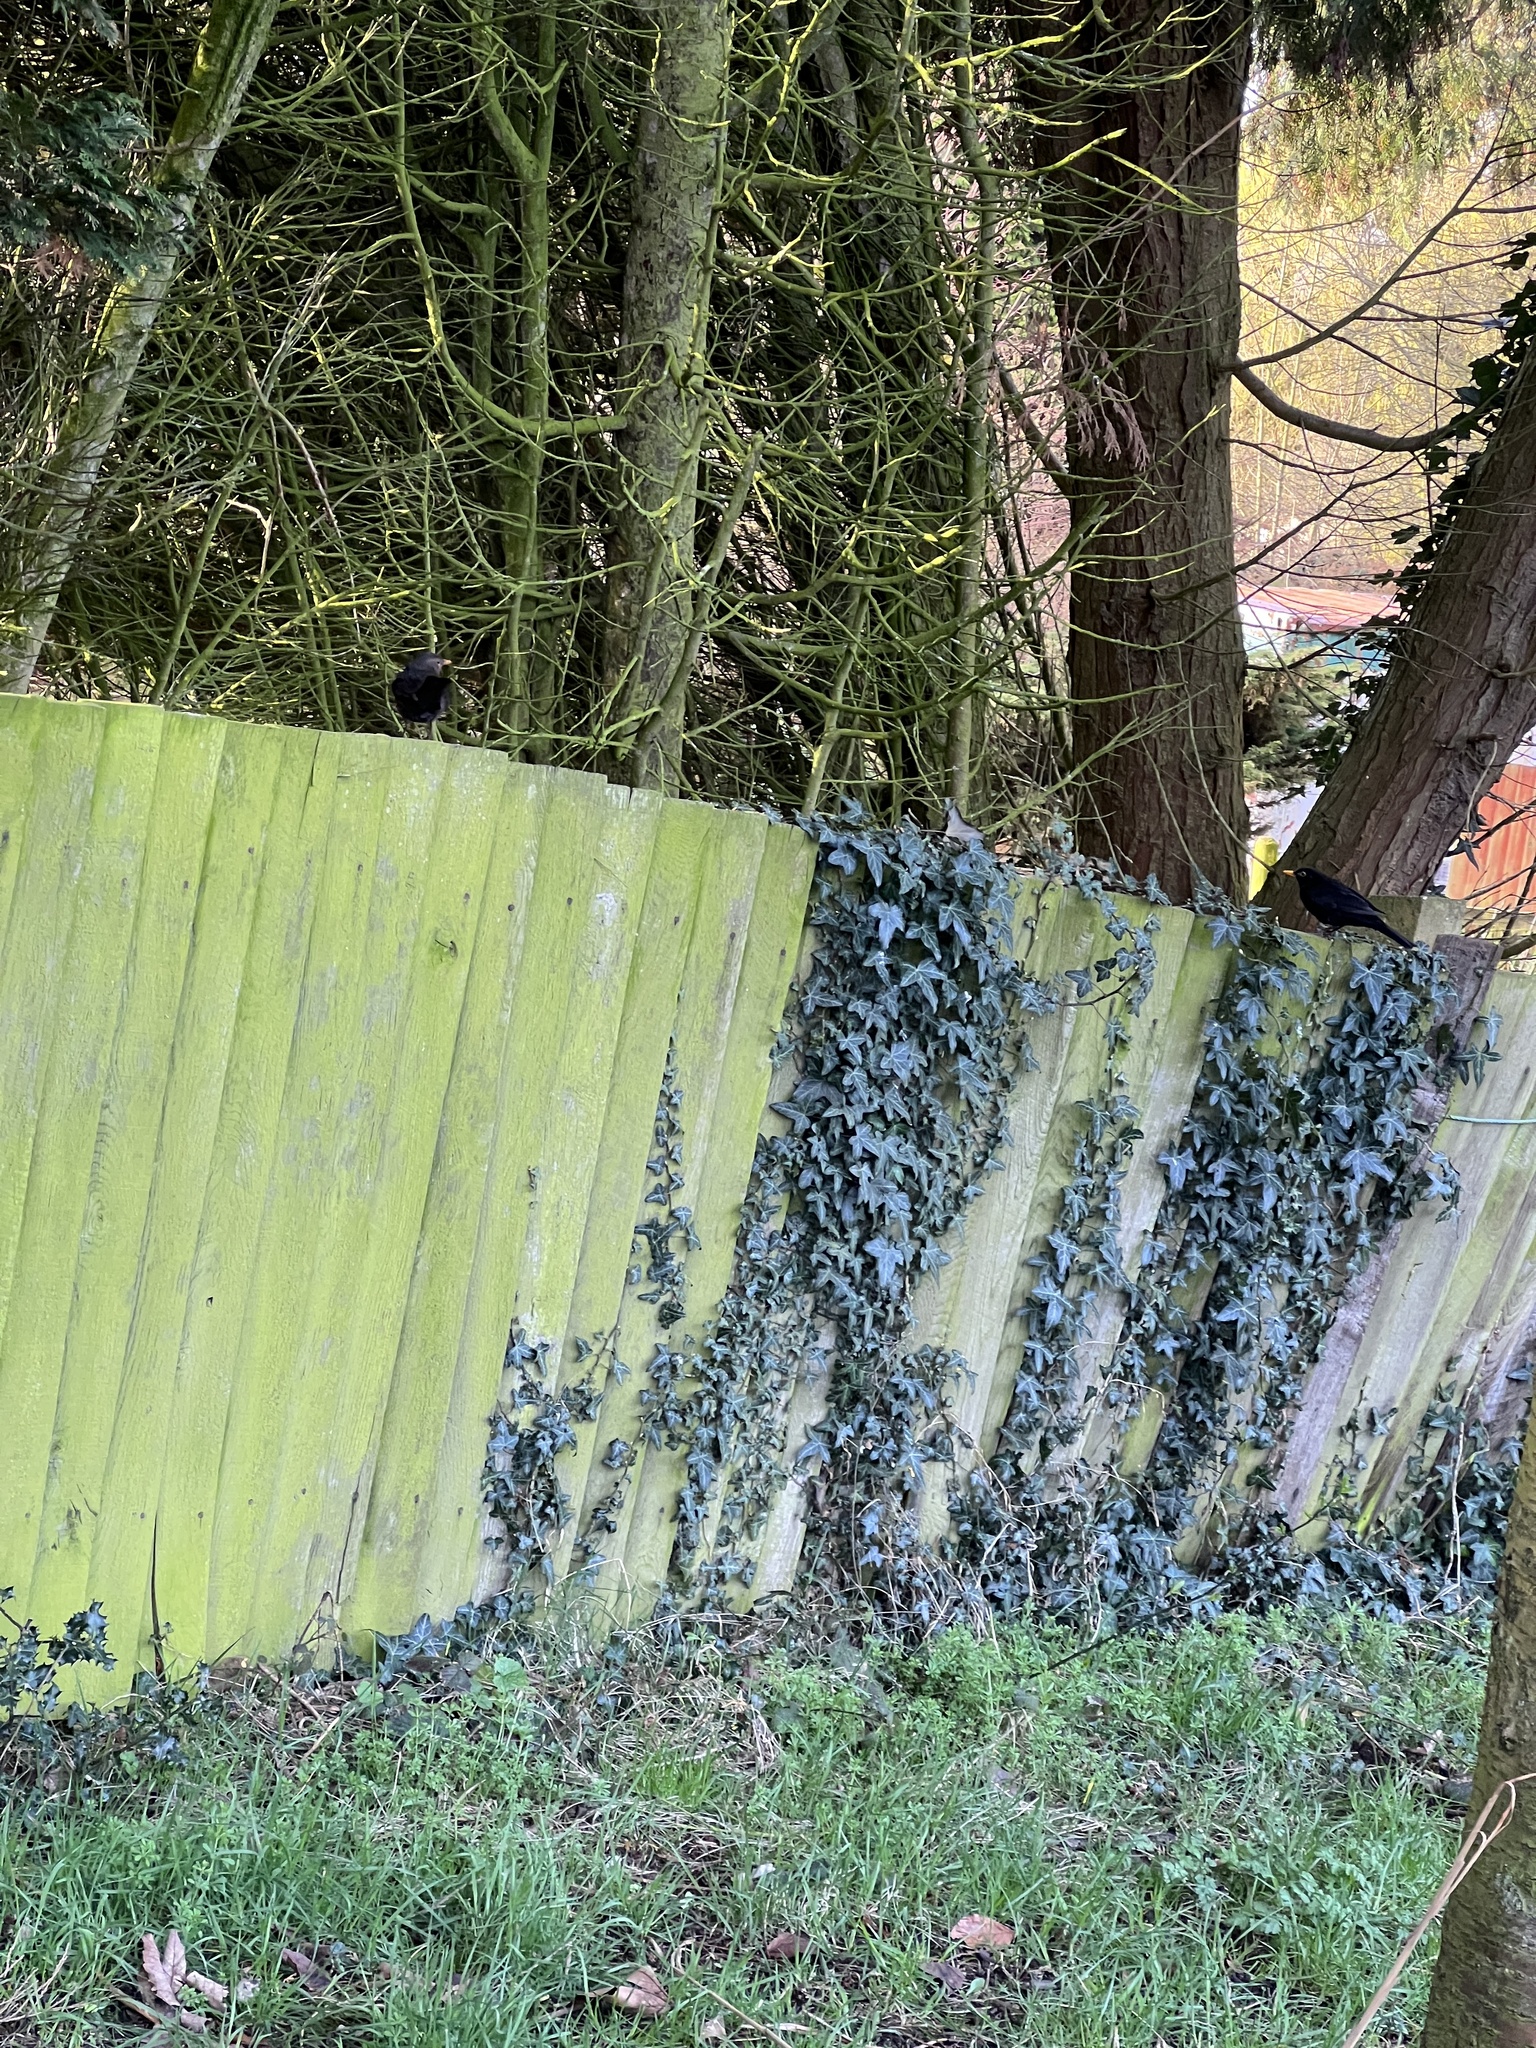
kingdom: Animalia
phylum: Chordata
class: Aves
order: Passeriformes
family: Turdidae
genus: Turdus
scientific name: Turdus merula
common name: Common blackbird
